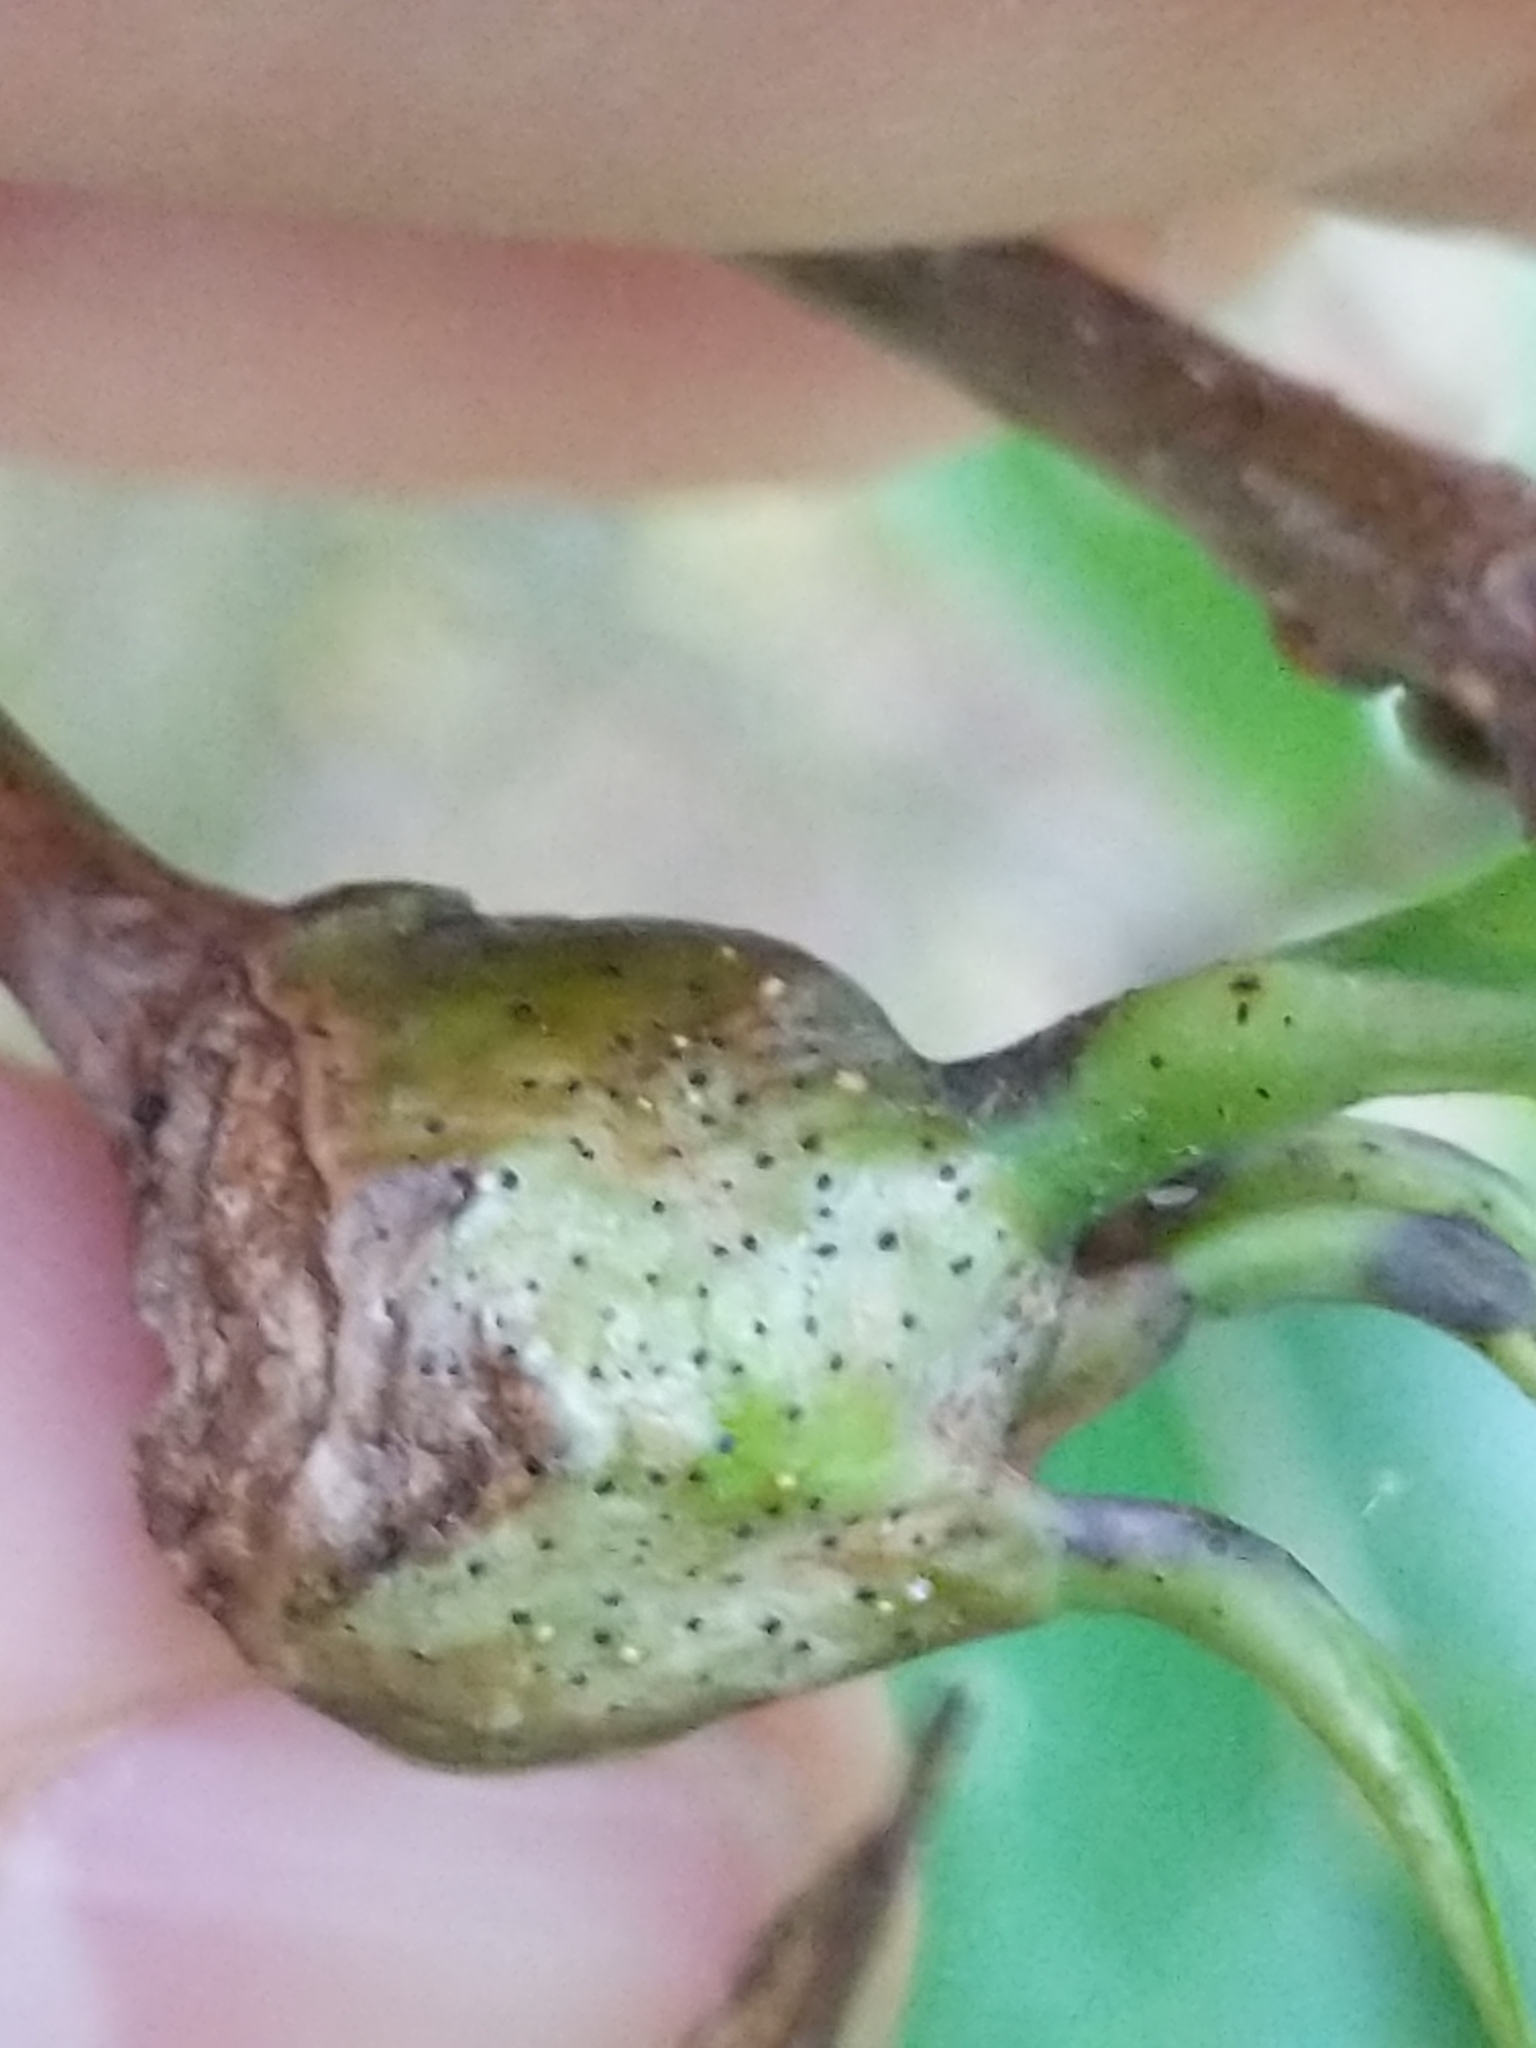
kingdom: Animalia
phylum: Arthropoda
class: Insecta
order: Hymenoptera
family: Cynipidae
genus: Callirhytis
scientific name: Callirhytis clavula
